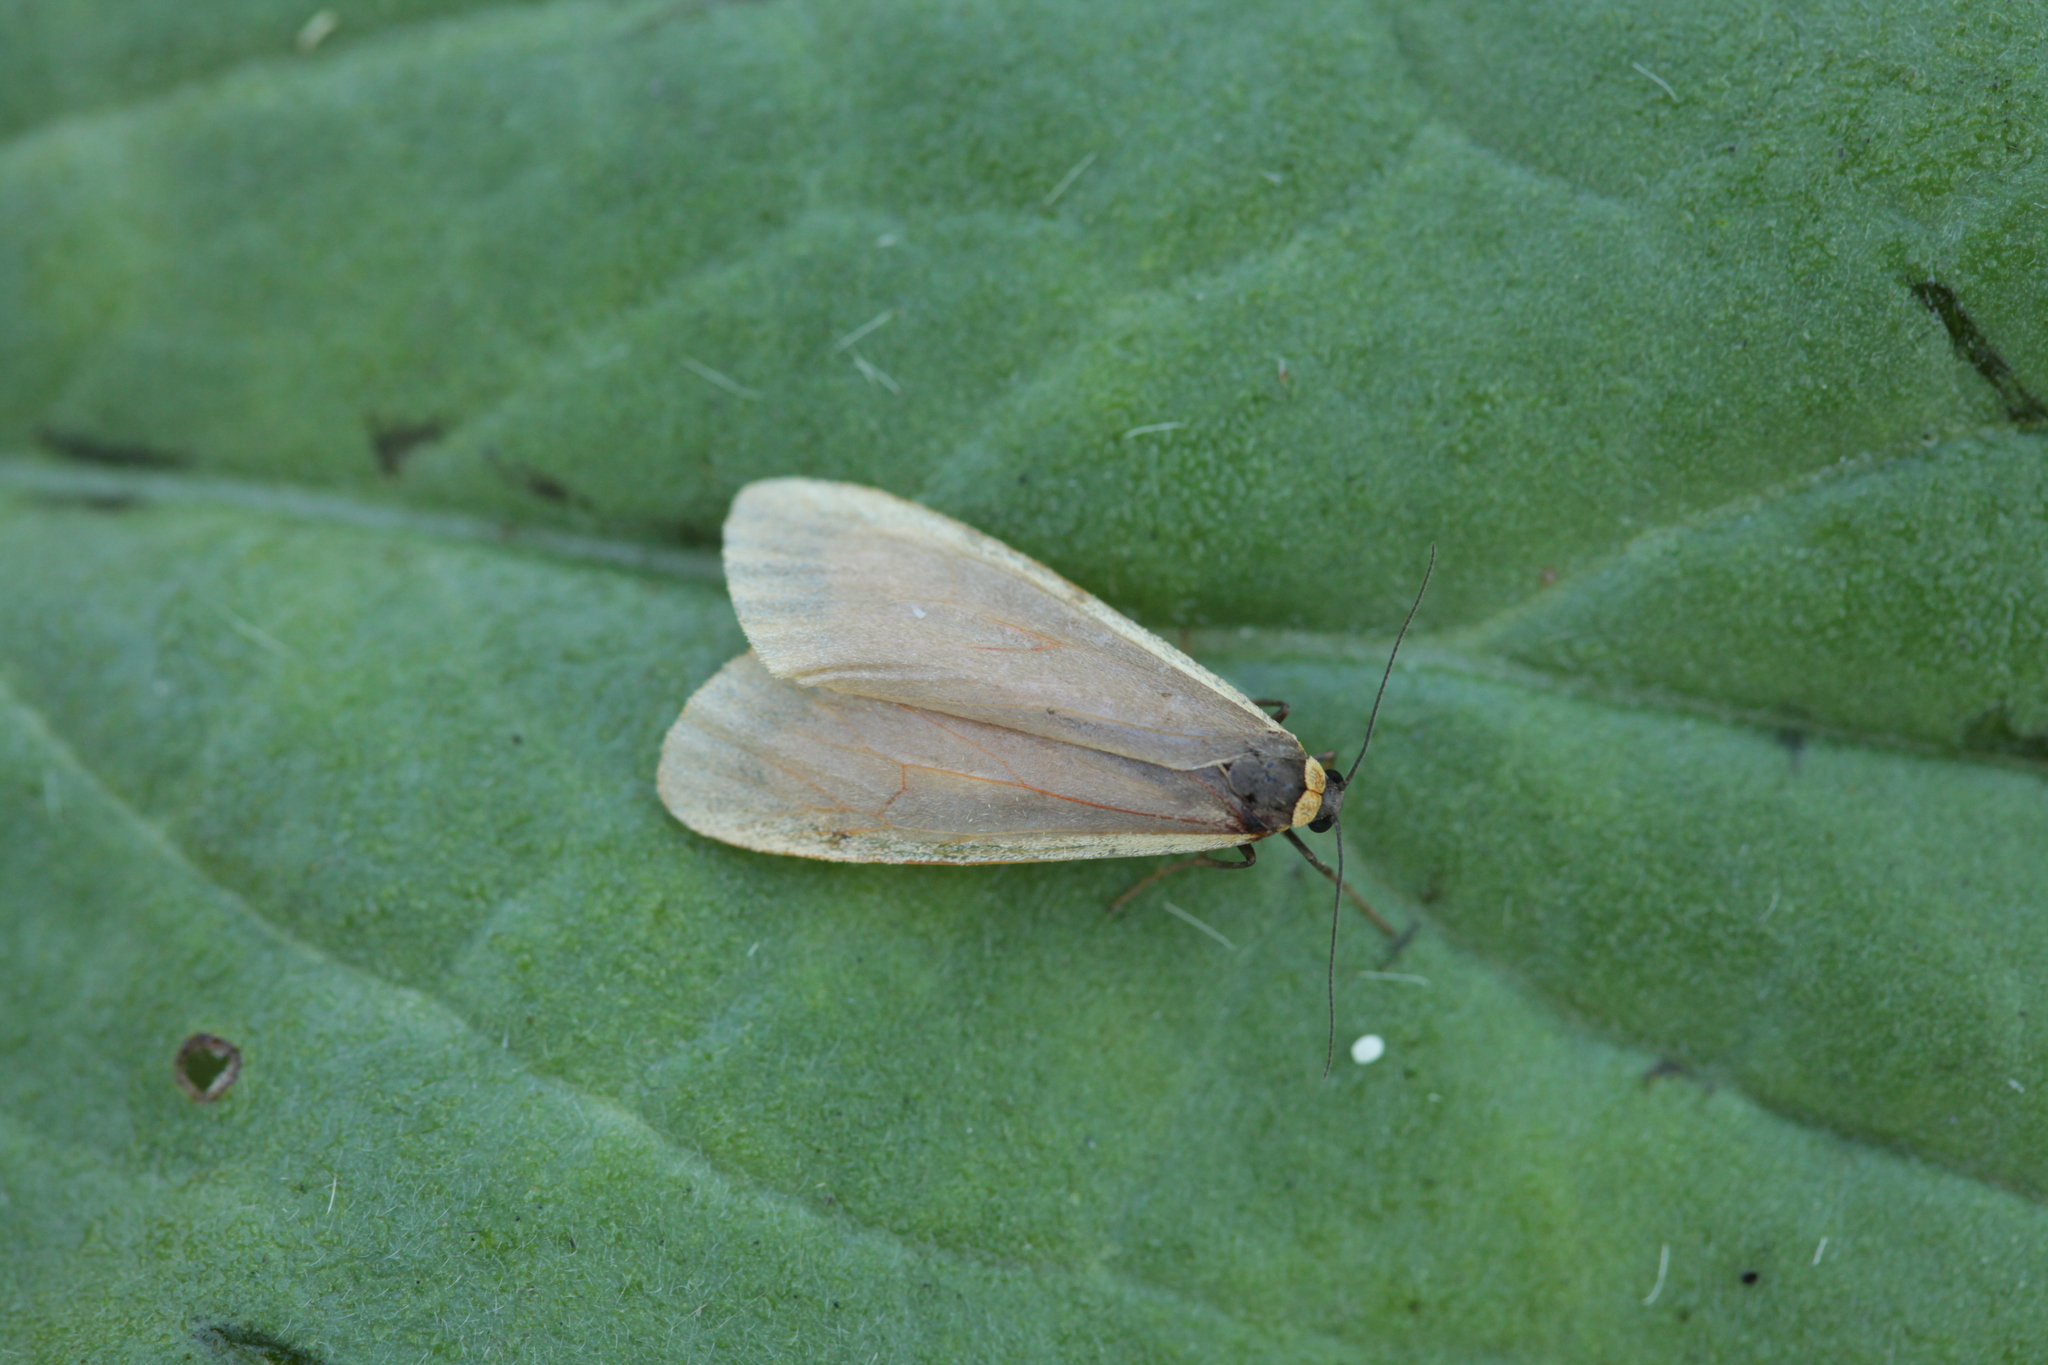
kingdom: Animalia
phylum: Arthropoda
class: Insecta
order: Lepidoptera
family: Erebidae
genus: Eilema
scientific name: Eilema Setema debilis
